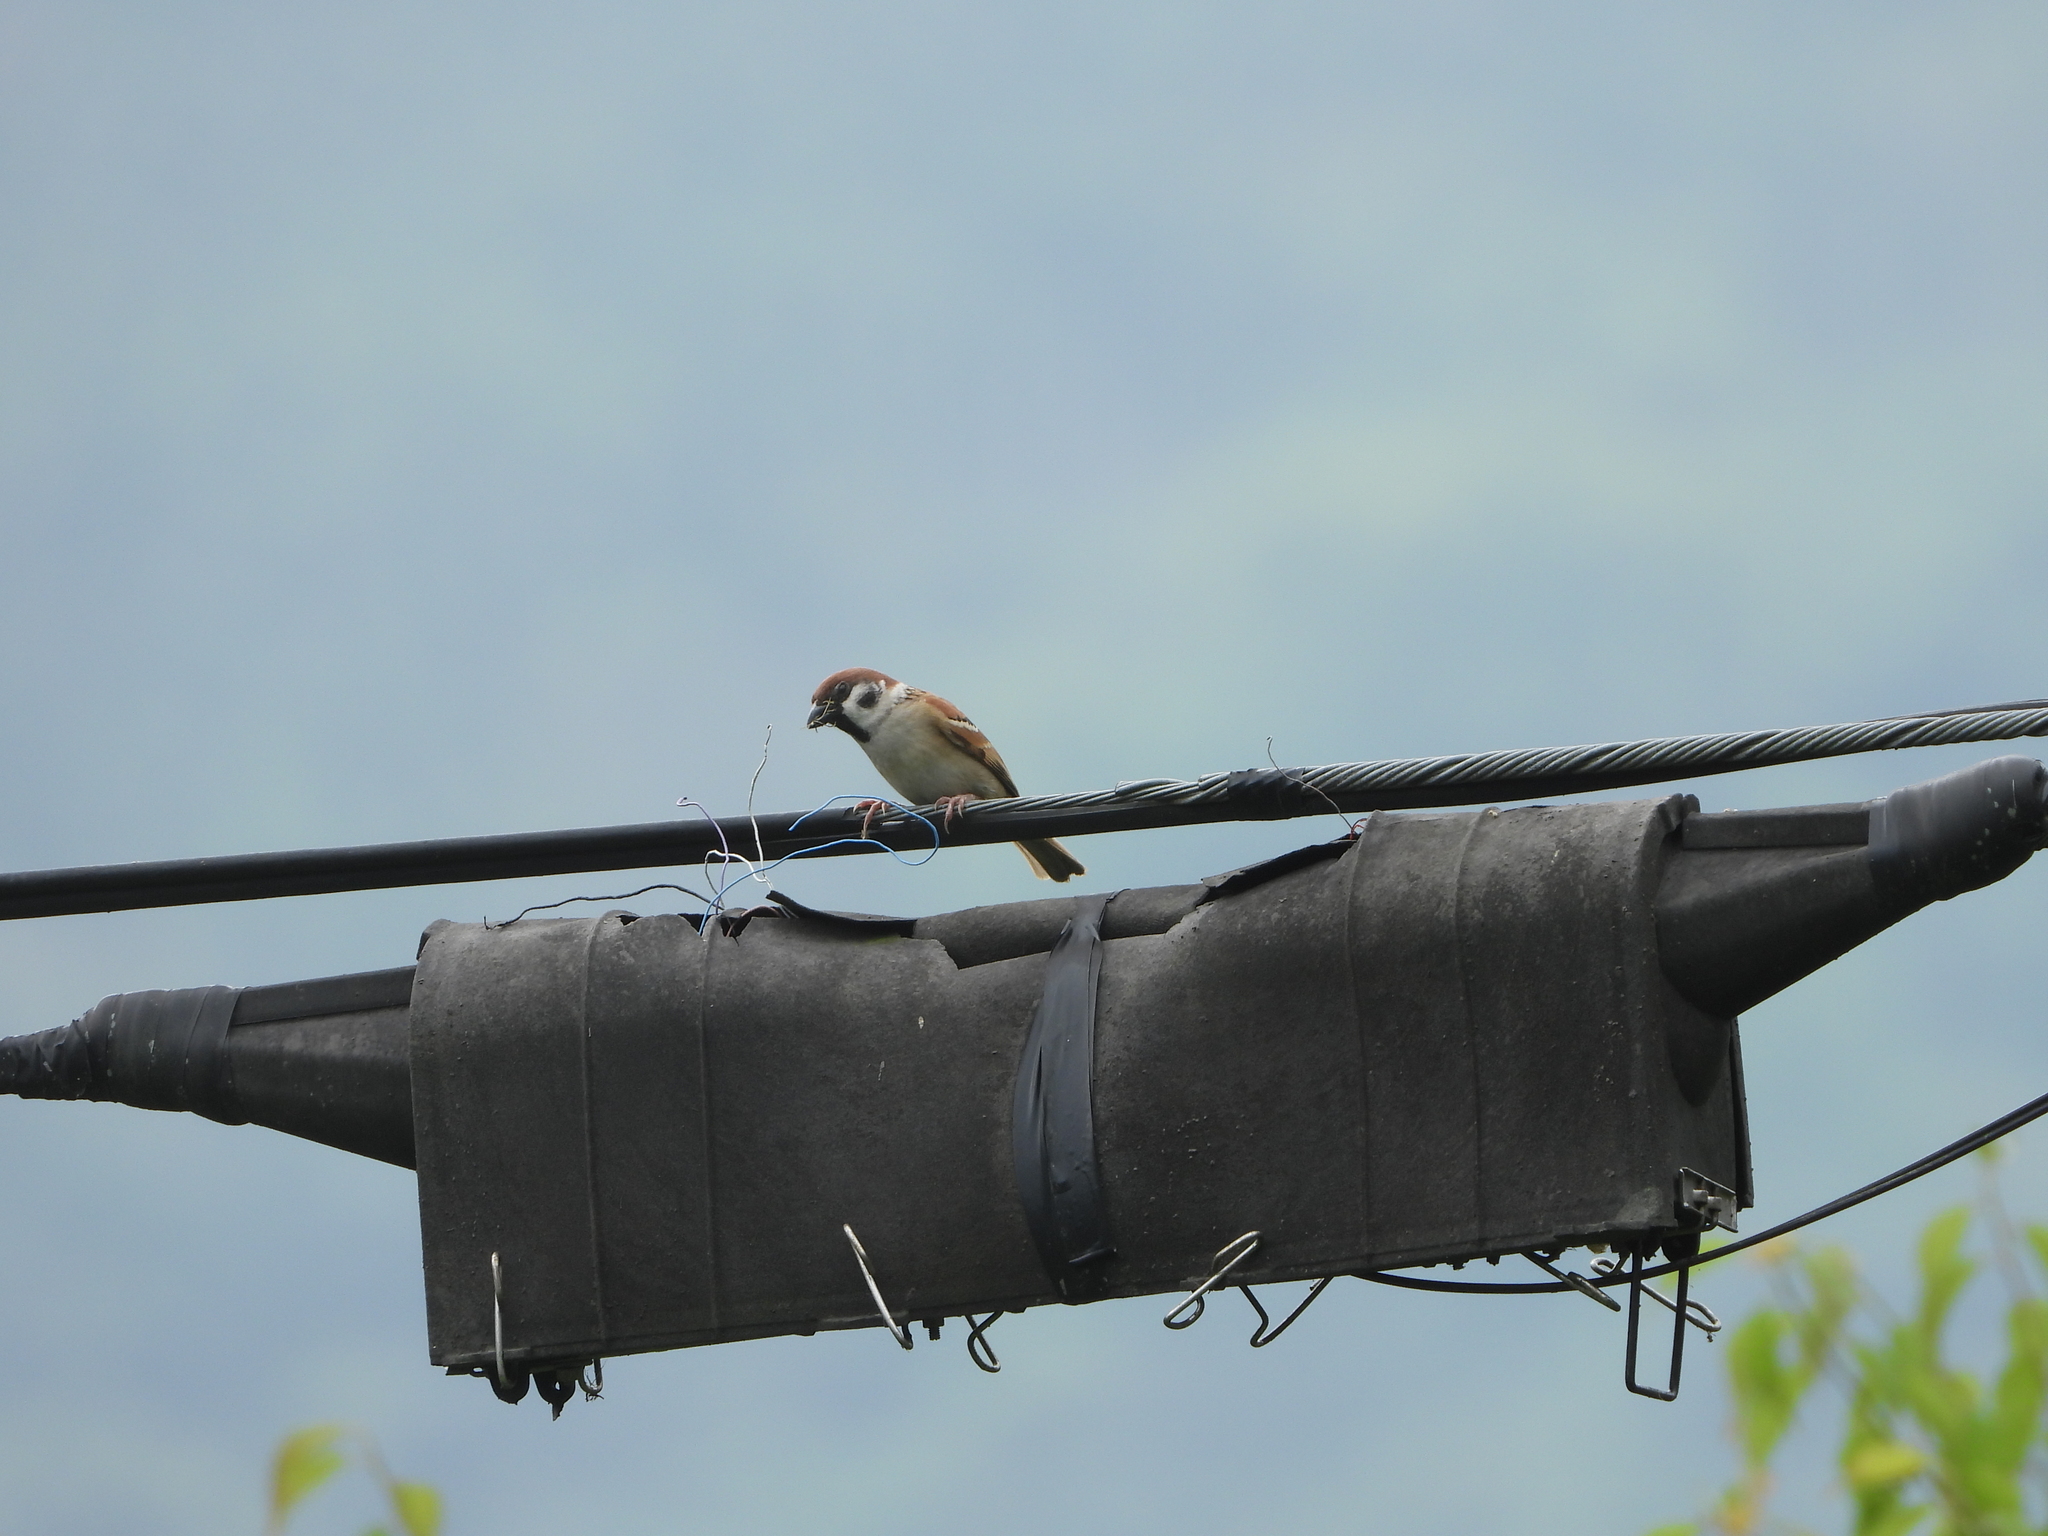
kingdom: Animalia
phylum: Chordata
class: Aves
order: Passeriformes
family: Passeridae
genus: Passer
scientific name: Passer montanus
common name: Eurasian tree sparrow
